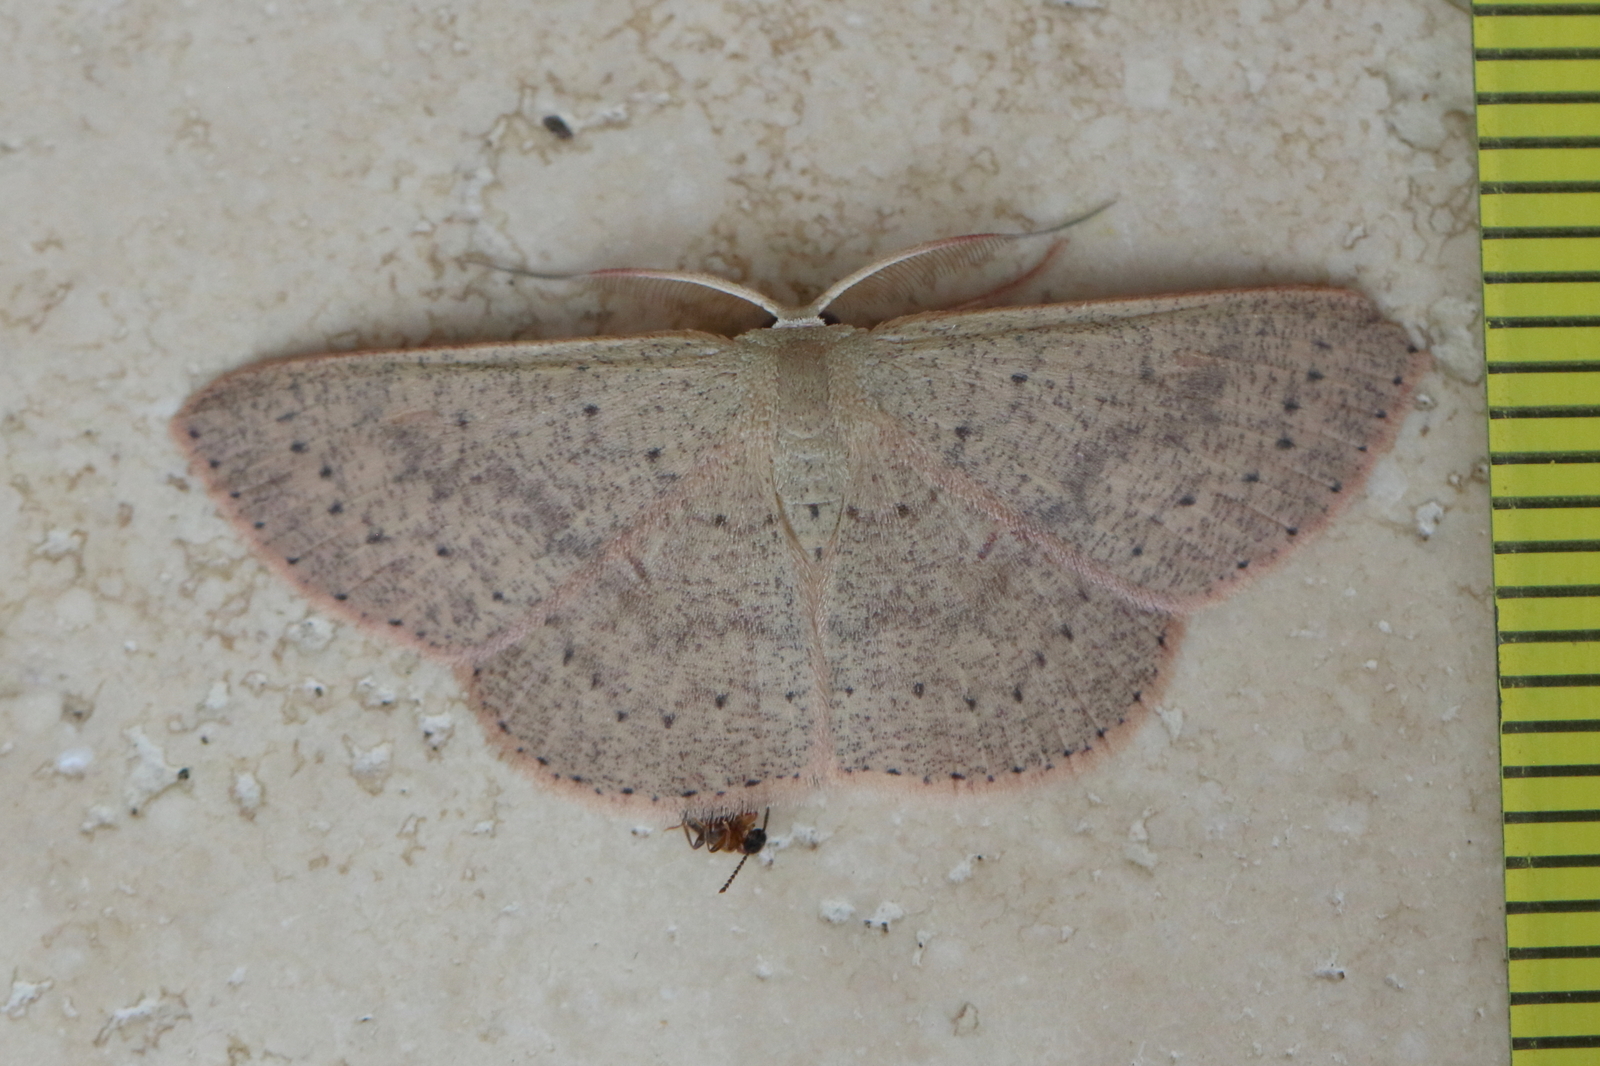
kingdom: Animalia
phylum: Arthropoda
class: Insecta
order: Lepidoptera
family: Geometridae
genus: Cyclophora
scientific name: Cyclophora obstataria
